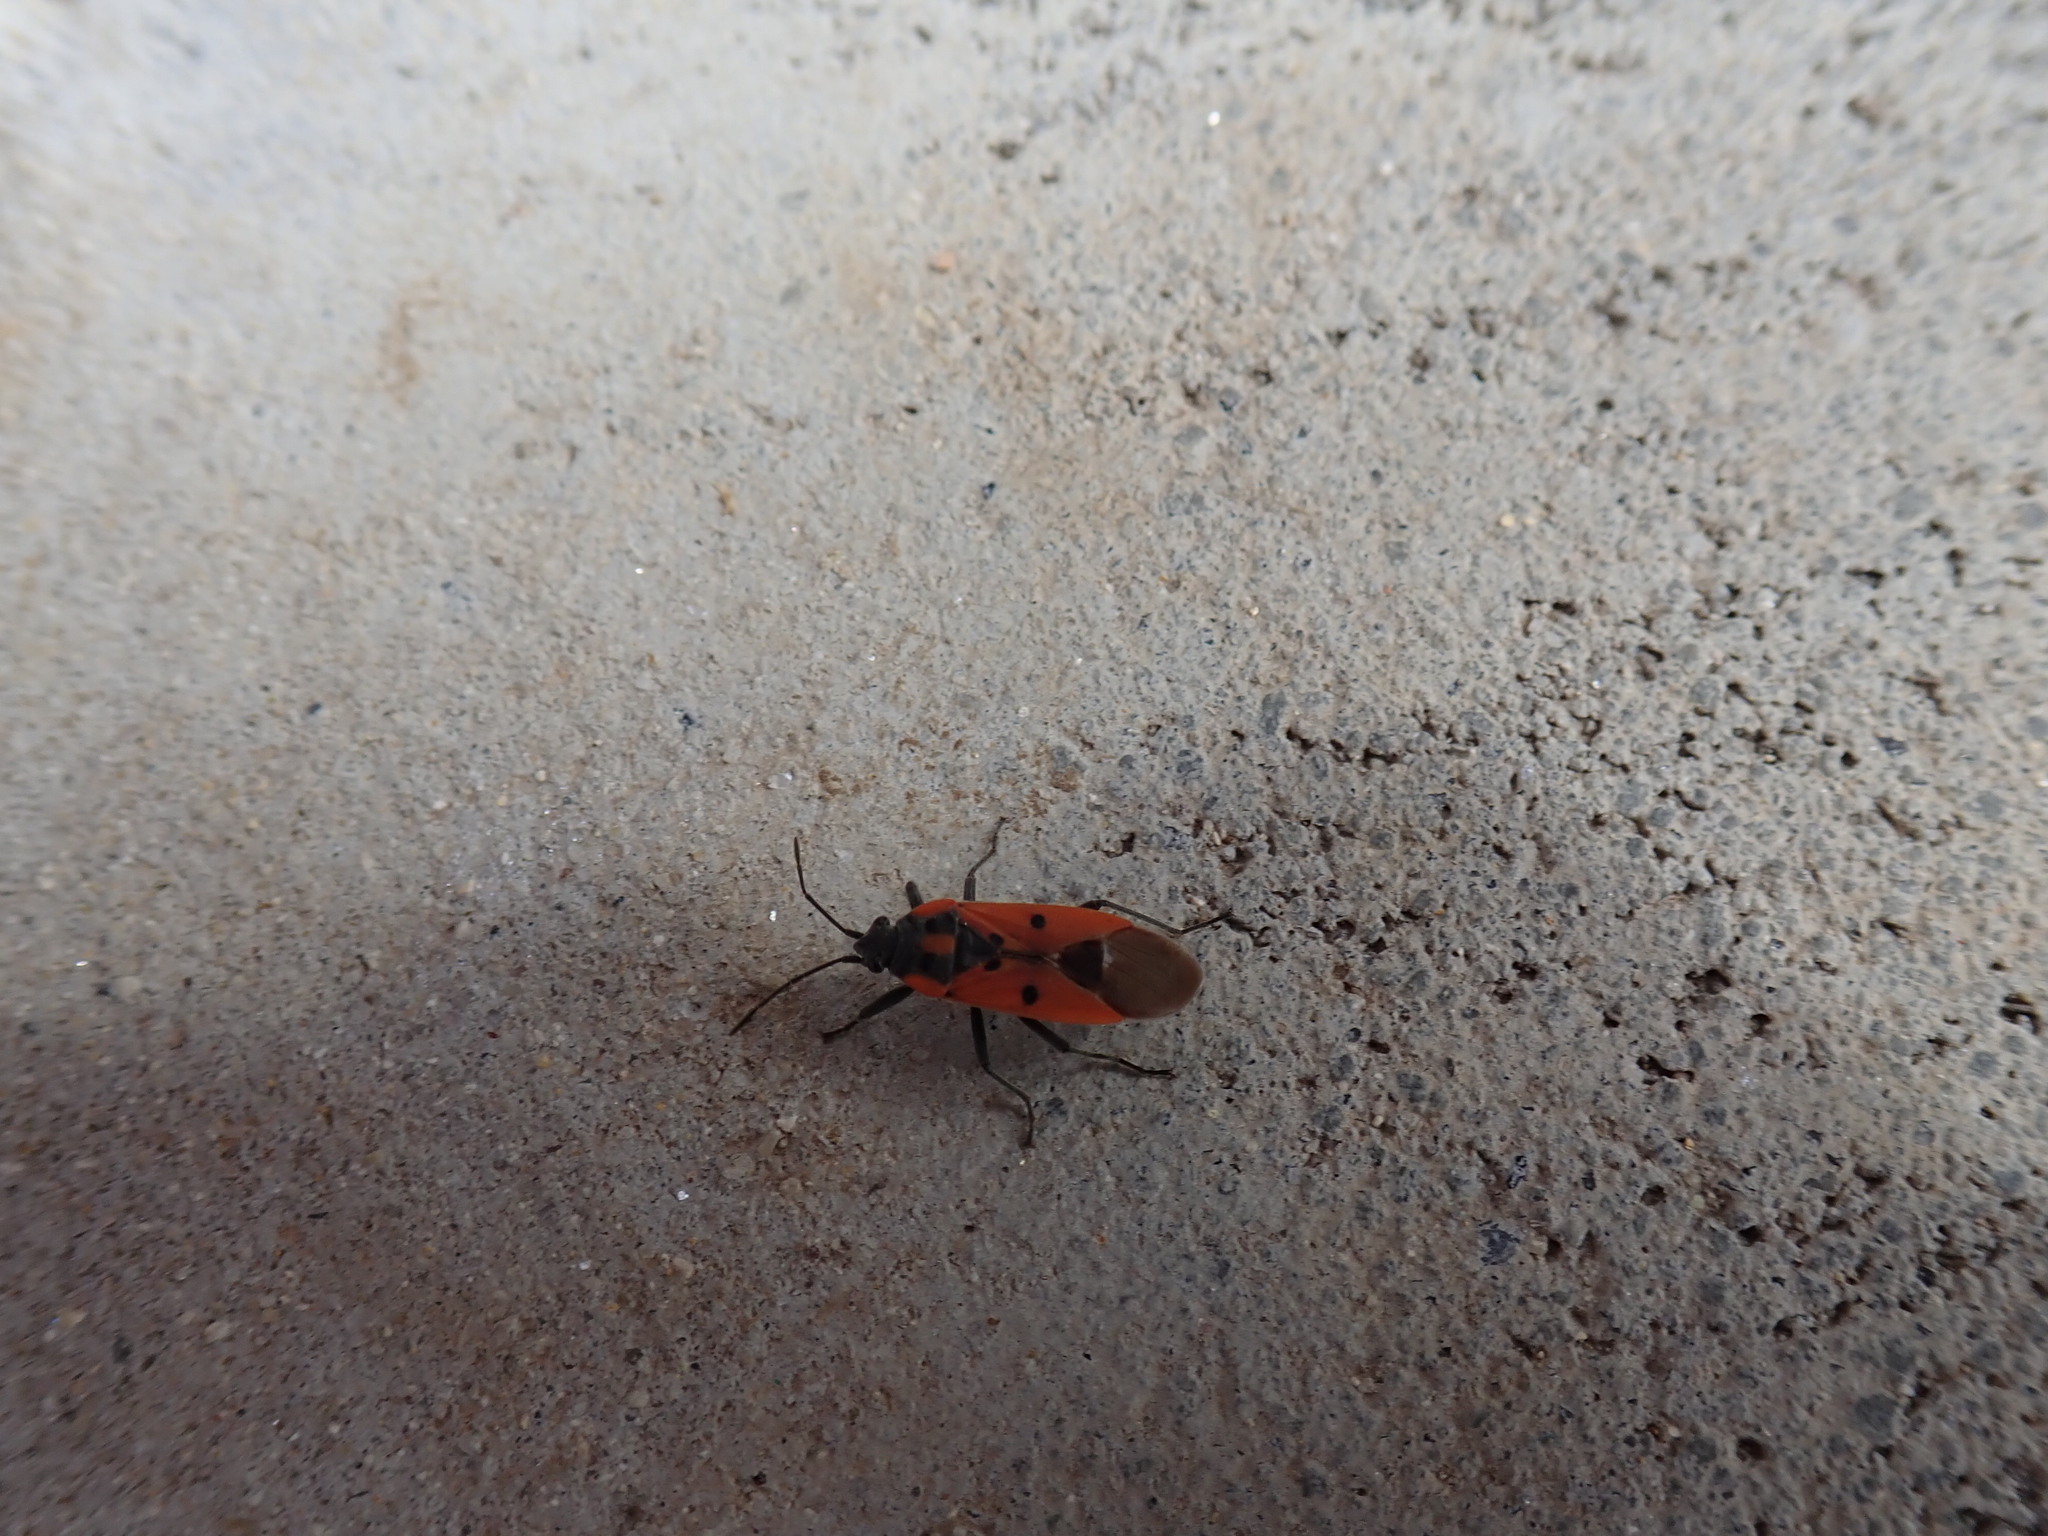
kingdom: Animalia
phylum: Arthropoda
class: Insecta
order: Hemiptera
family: Lygaeidae
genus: Lygaeus
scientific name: Lygaeus creticus
